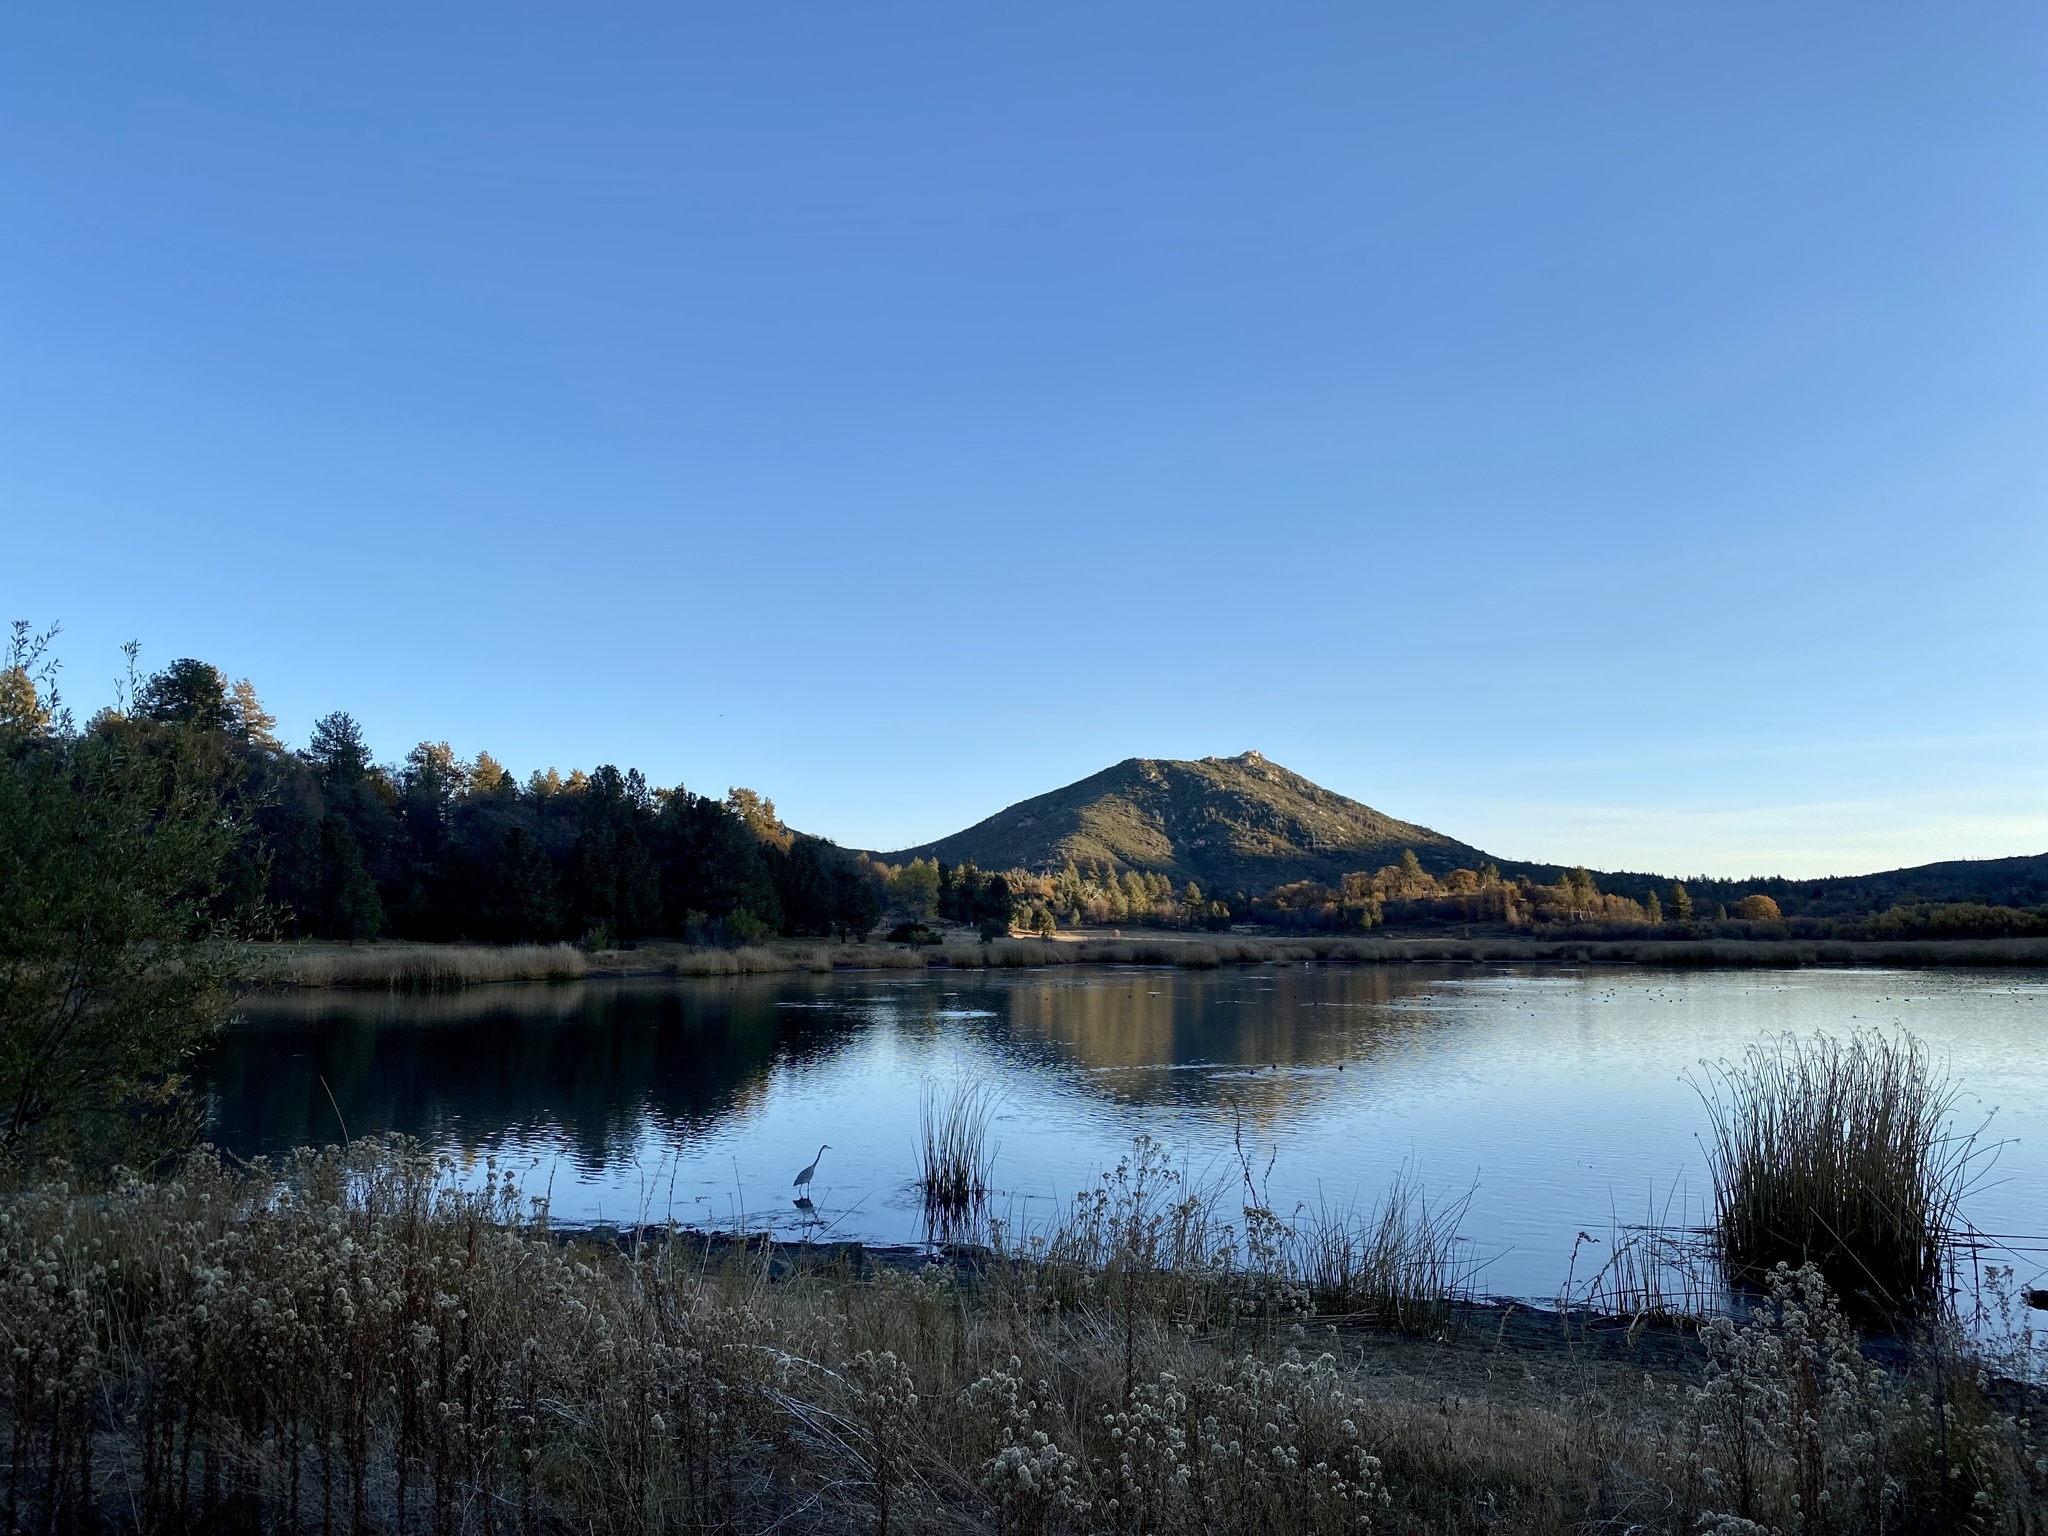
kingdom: Animalia
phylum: Chordata
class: Aves
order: Pelecaniformes
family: Ardeidae
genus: Ardea
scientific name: Ardea herodias
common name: Great blue heron
